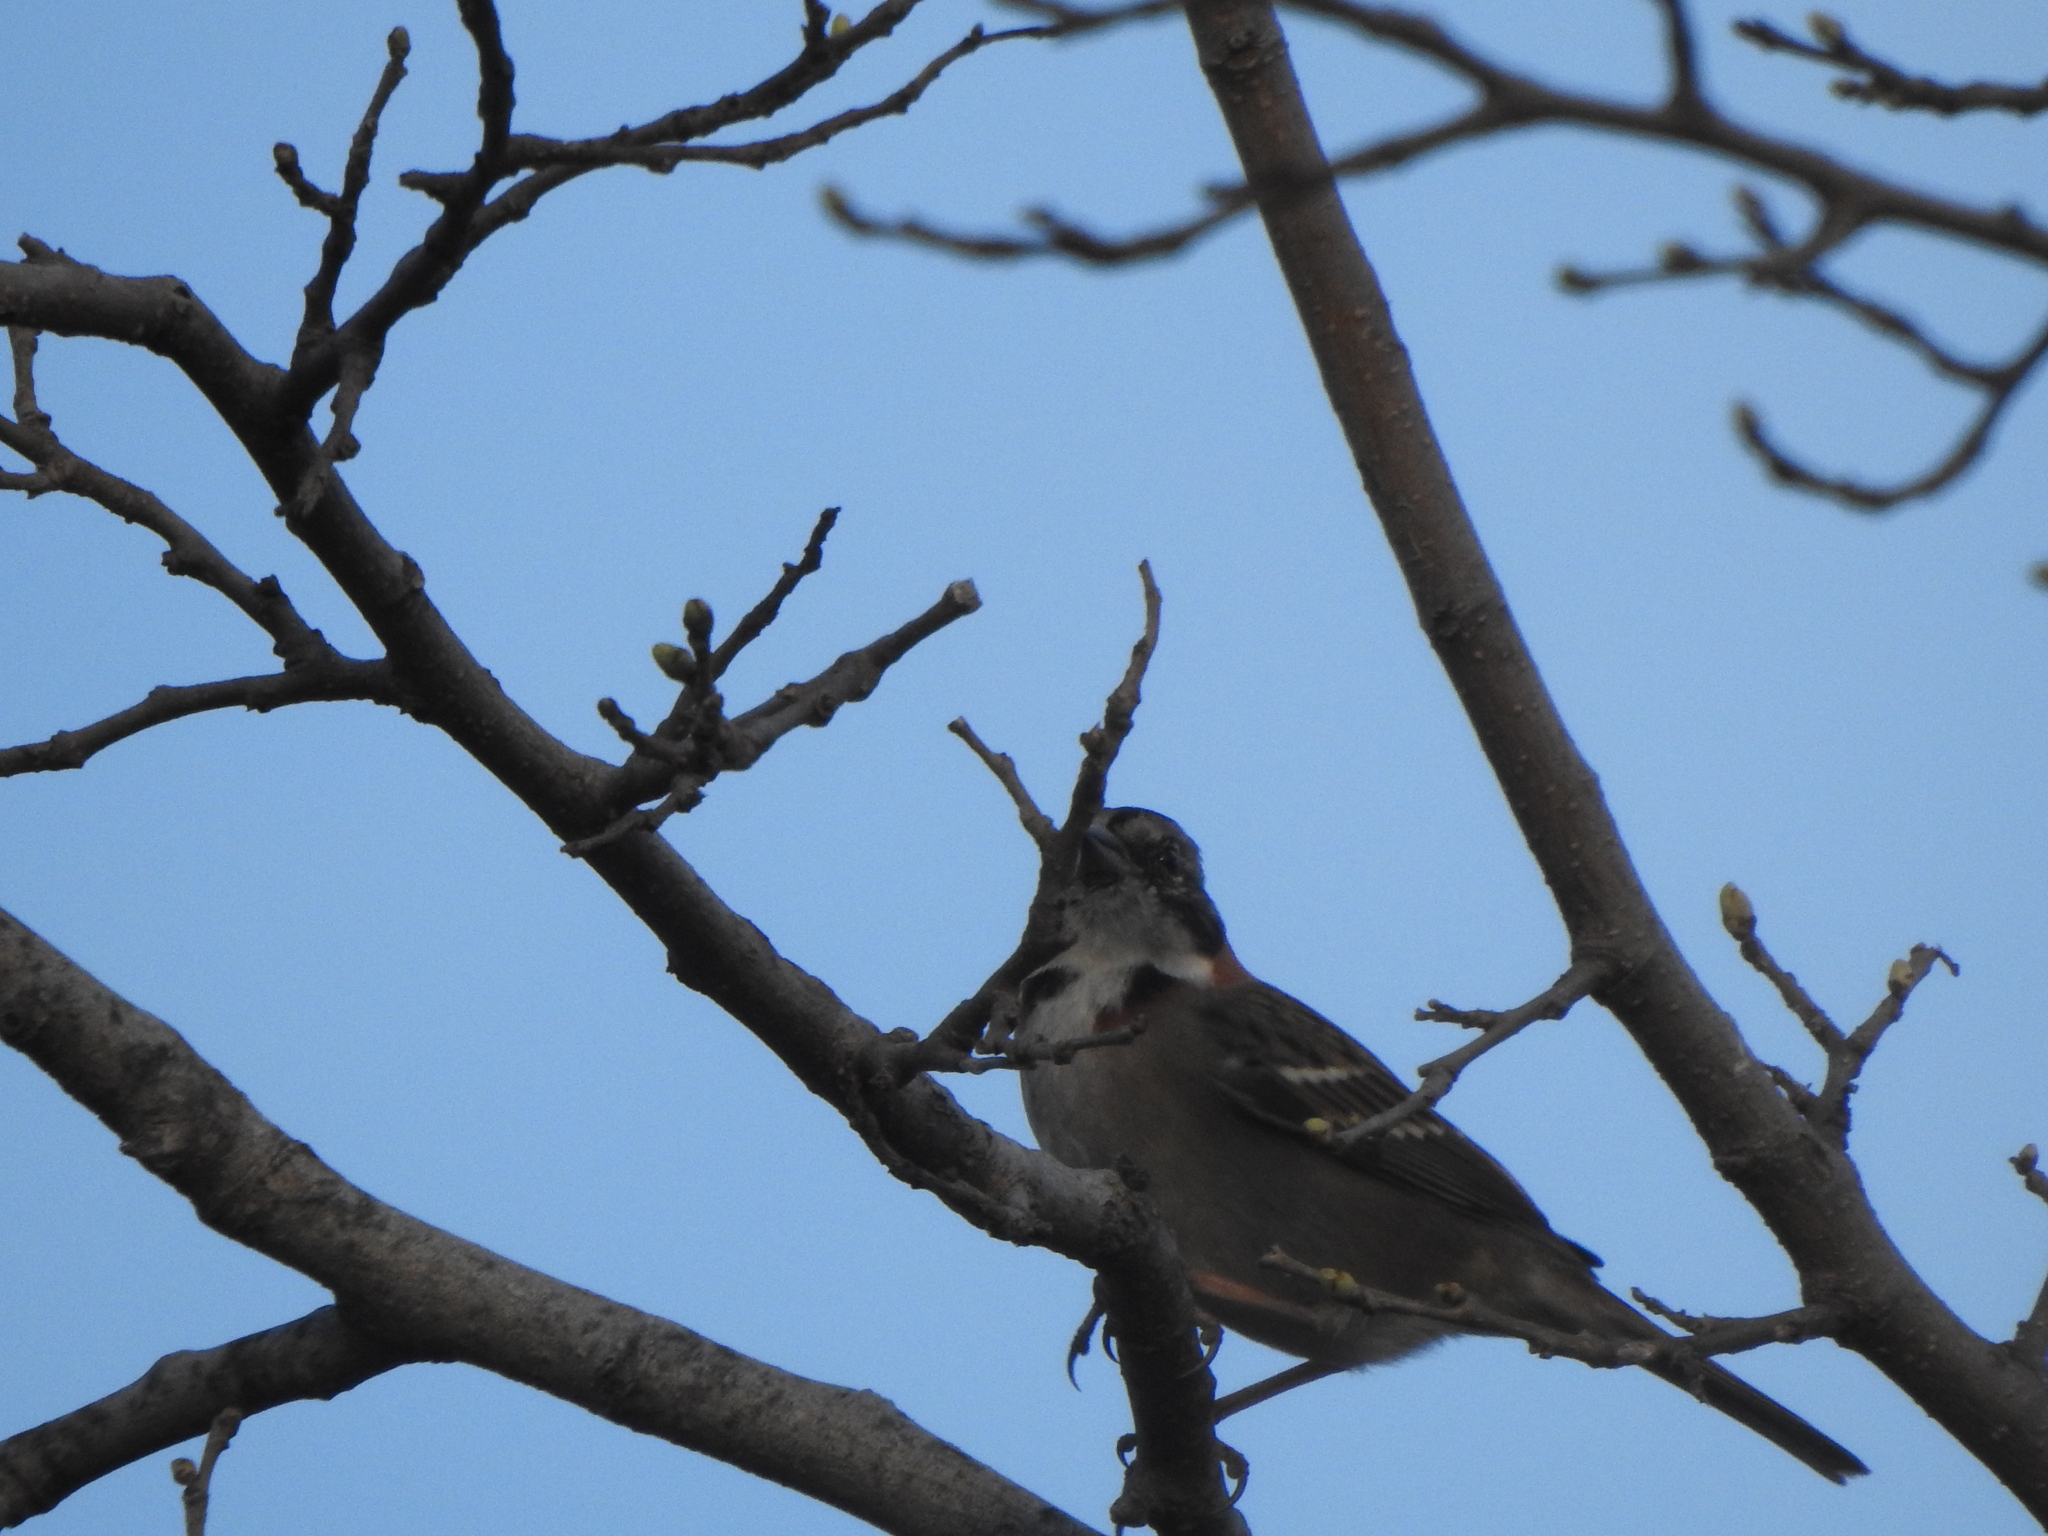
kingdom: Animalia
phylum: Chordata
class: Aves
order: Passeriformes
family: Passerellidae
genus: Zonotrichia
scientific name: Zonotrichia capensis
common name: Rufous-collared sparrow
